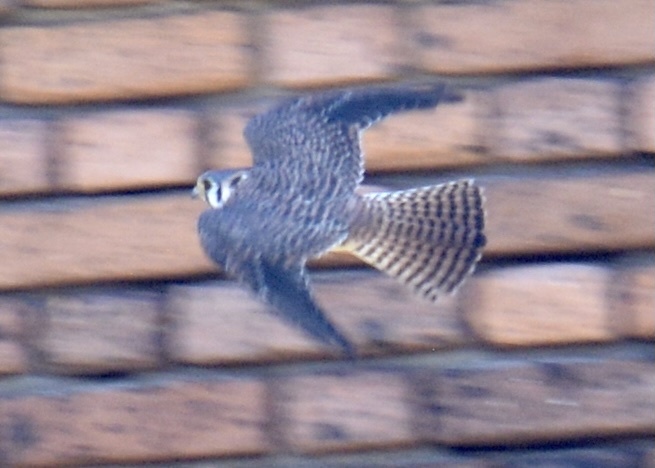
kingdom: Animalia
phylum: Chordata
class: Aves
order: Falconiformes
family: Falconidae
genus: Falco
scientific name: Falco sparverius
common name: American kestrel
